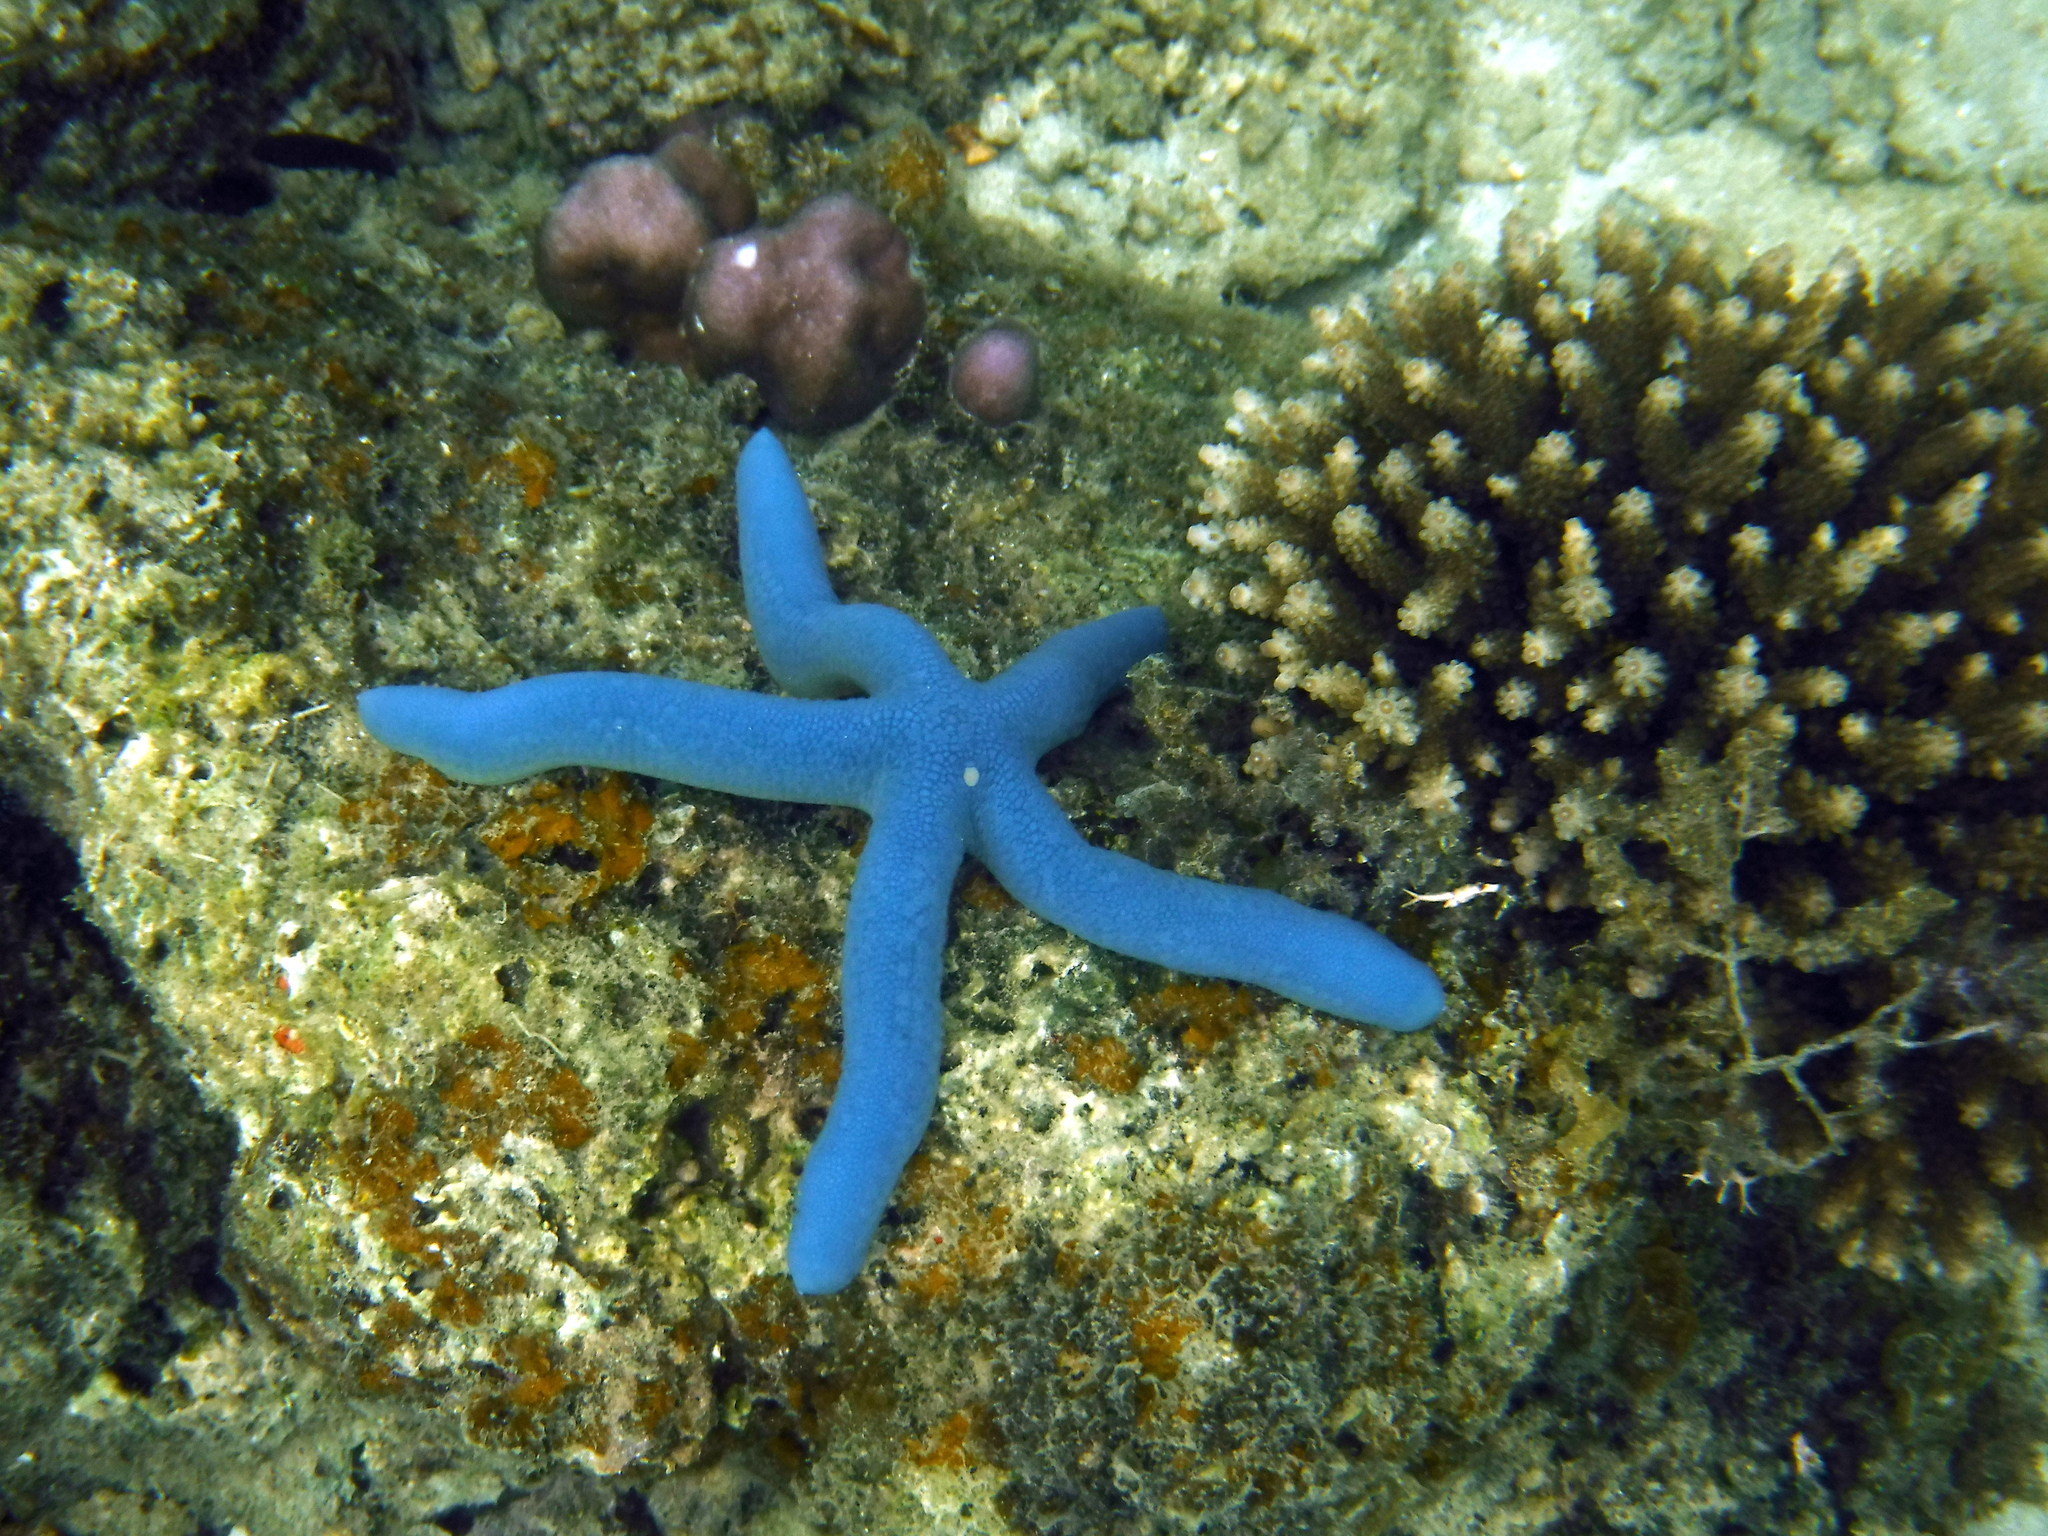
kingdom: Animalia
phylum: Echinodermata
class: Asteroidea
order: Valvatida
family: Ophidiasteridae
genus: Linckia
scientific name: Linckia laevigata
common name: Azure sea star
